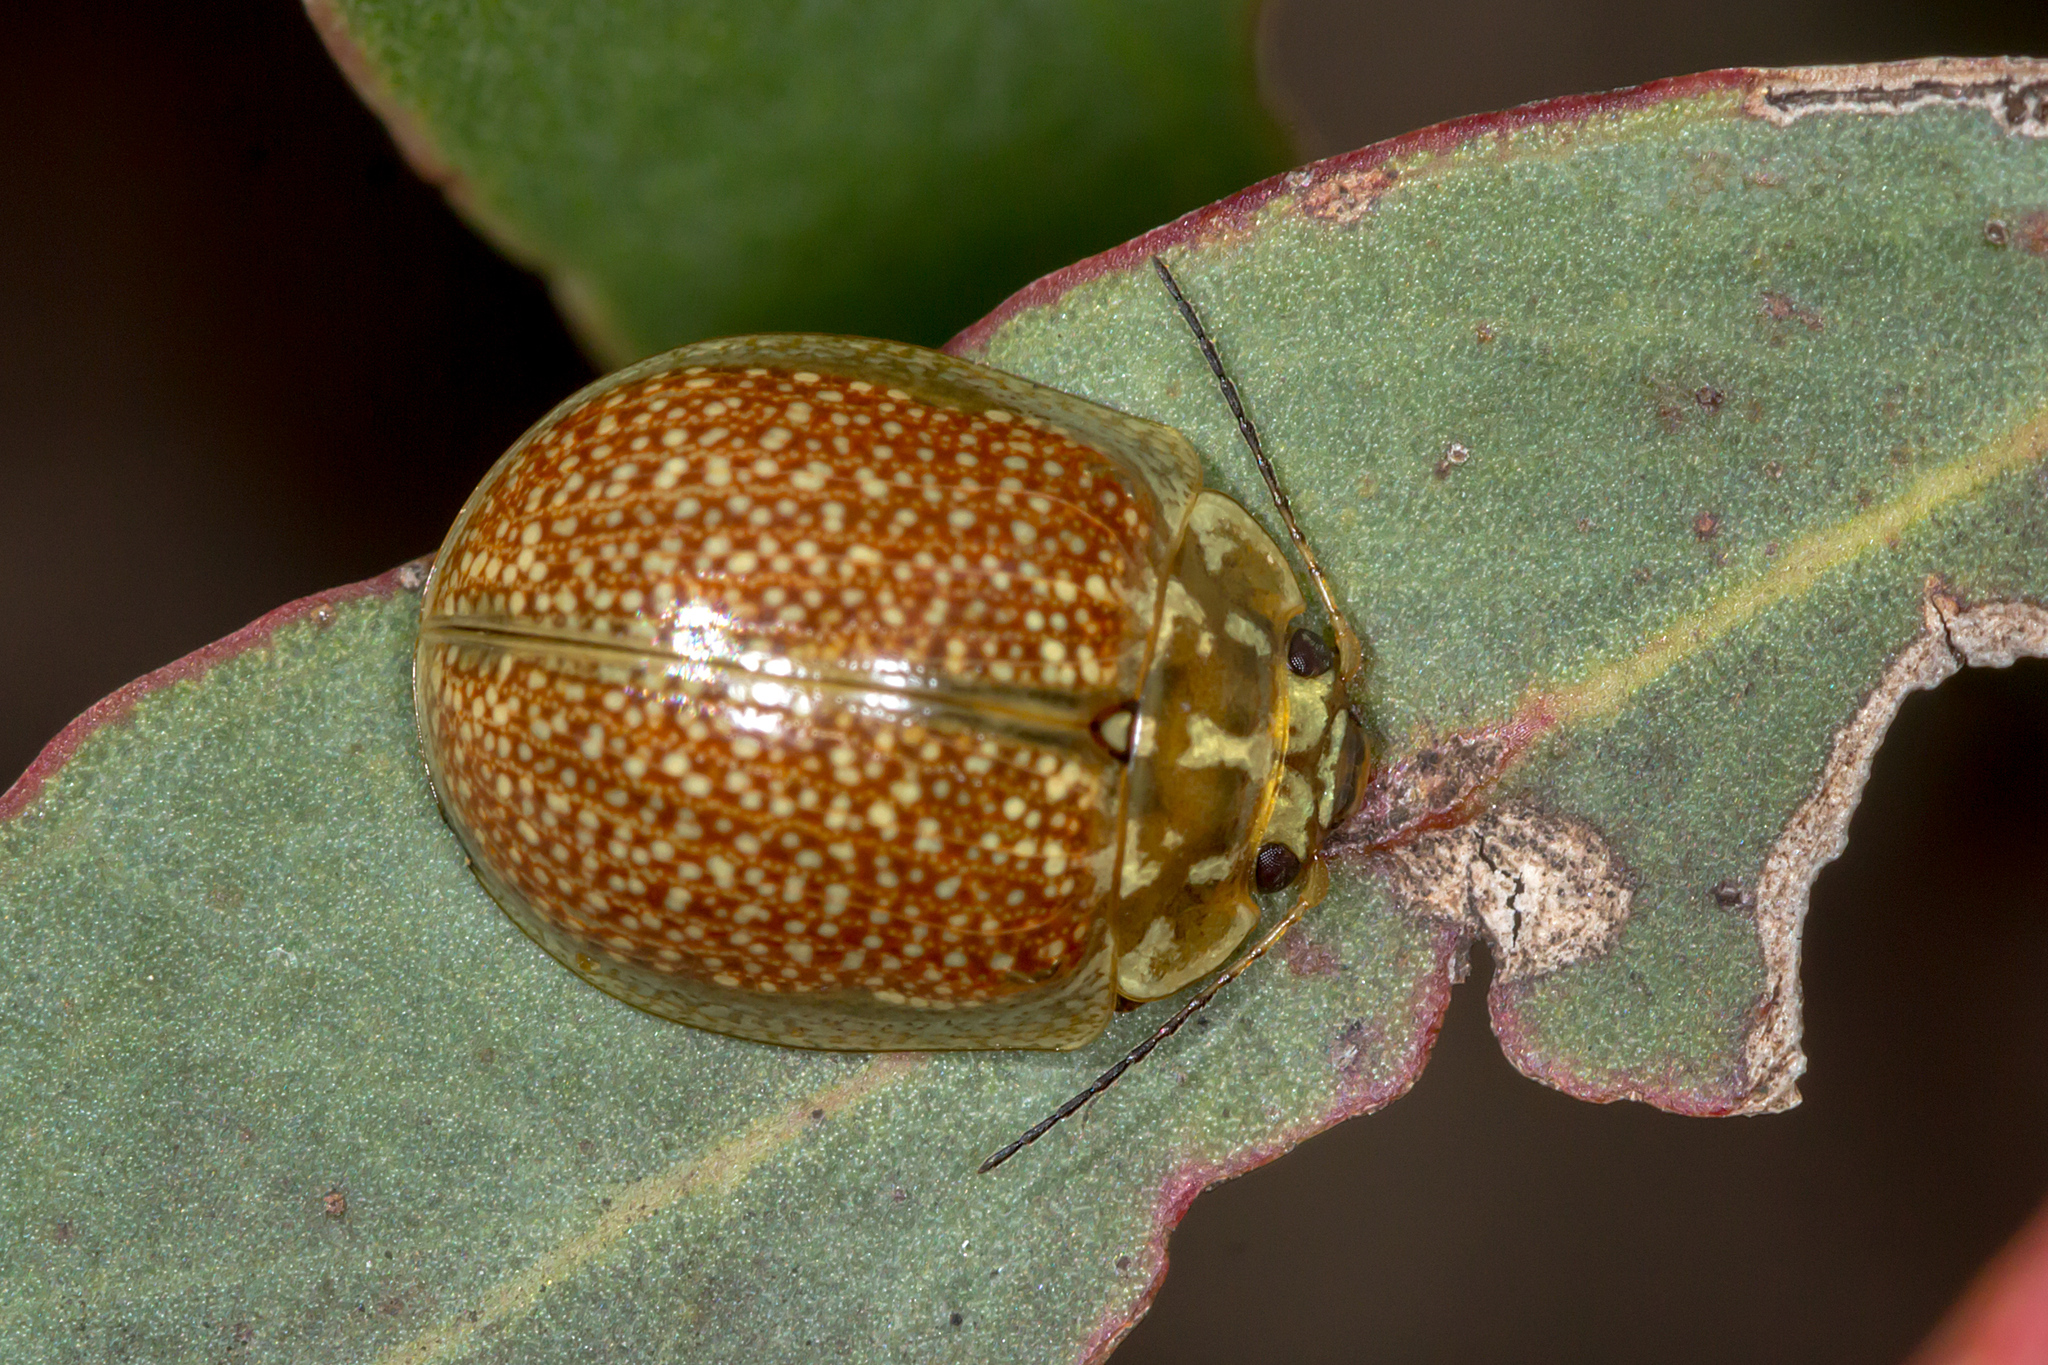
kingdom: Animalia
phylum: Arthropoda
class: Insecta
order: Coleoptera
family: Chrysomelidae
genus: Paropsisterna
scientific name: Paropsisterna cloelia
